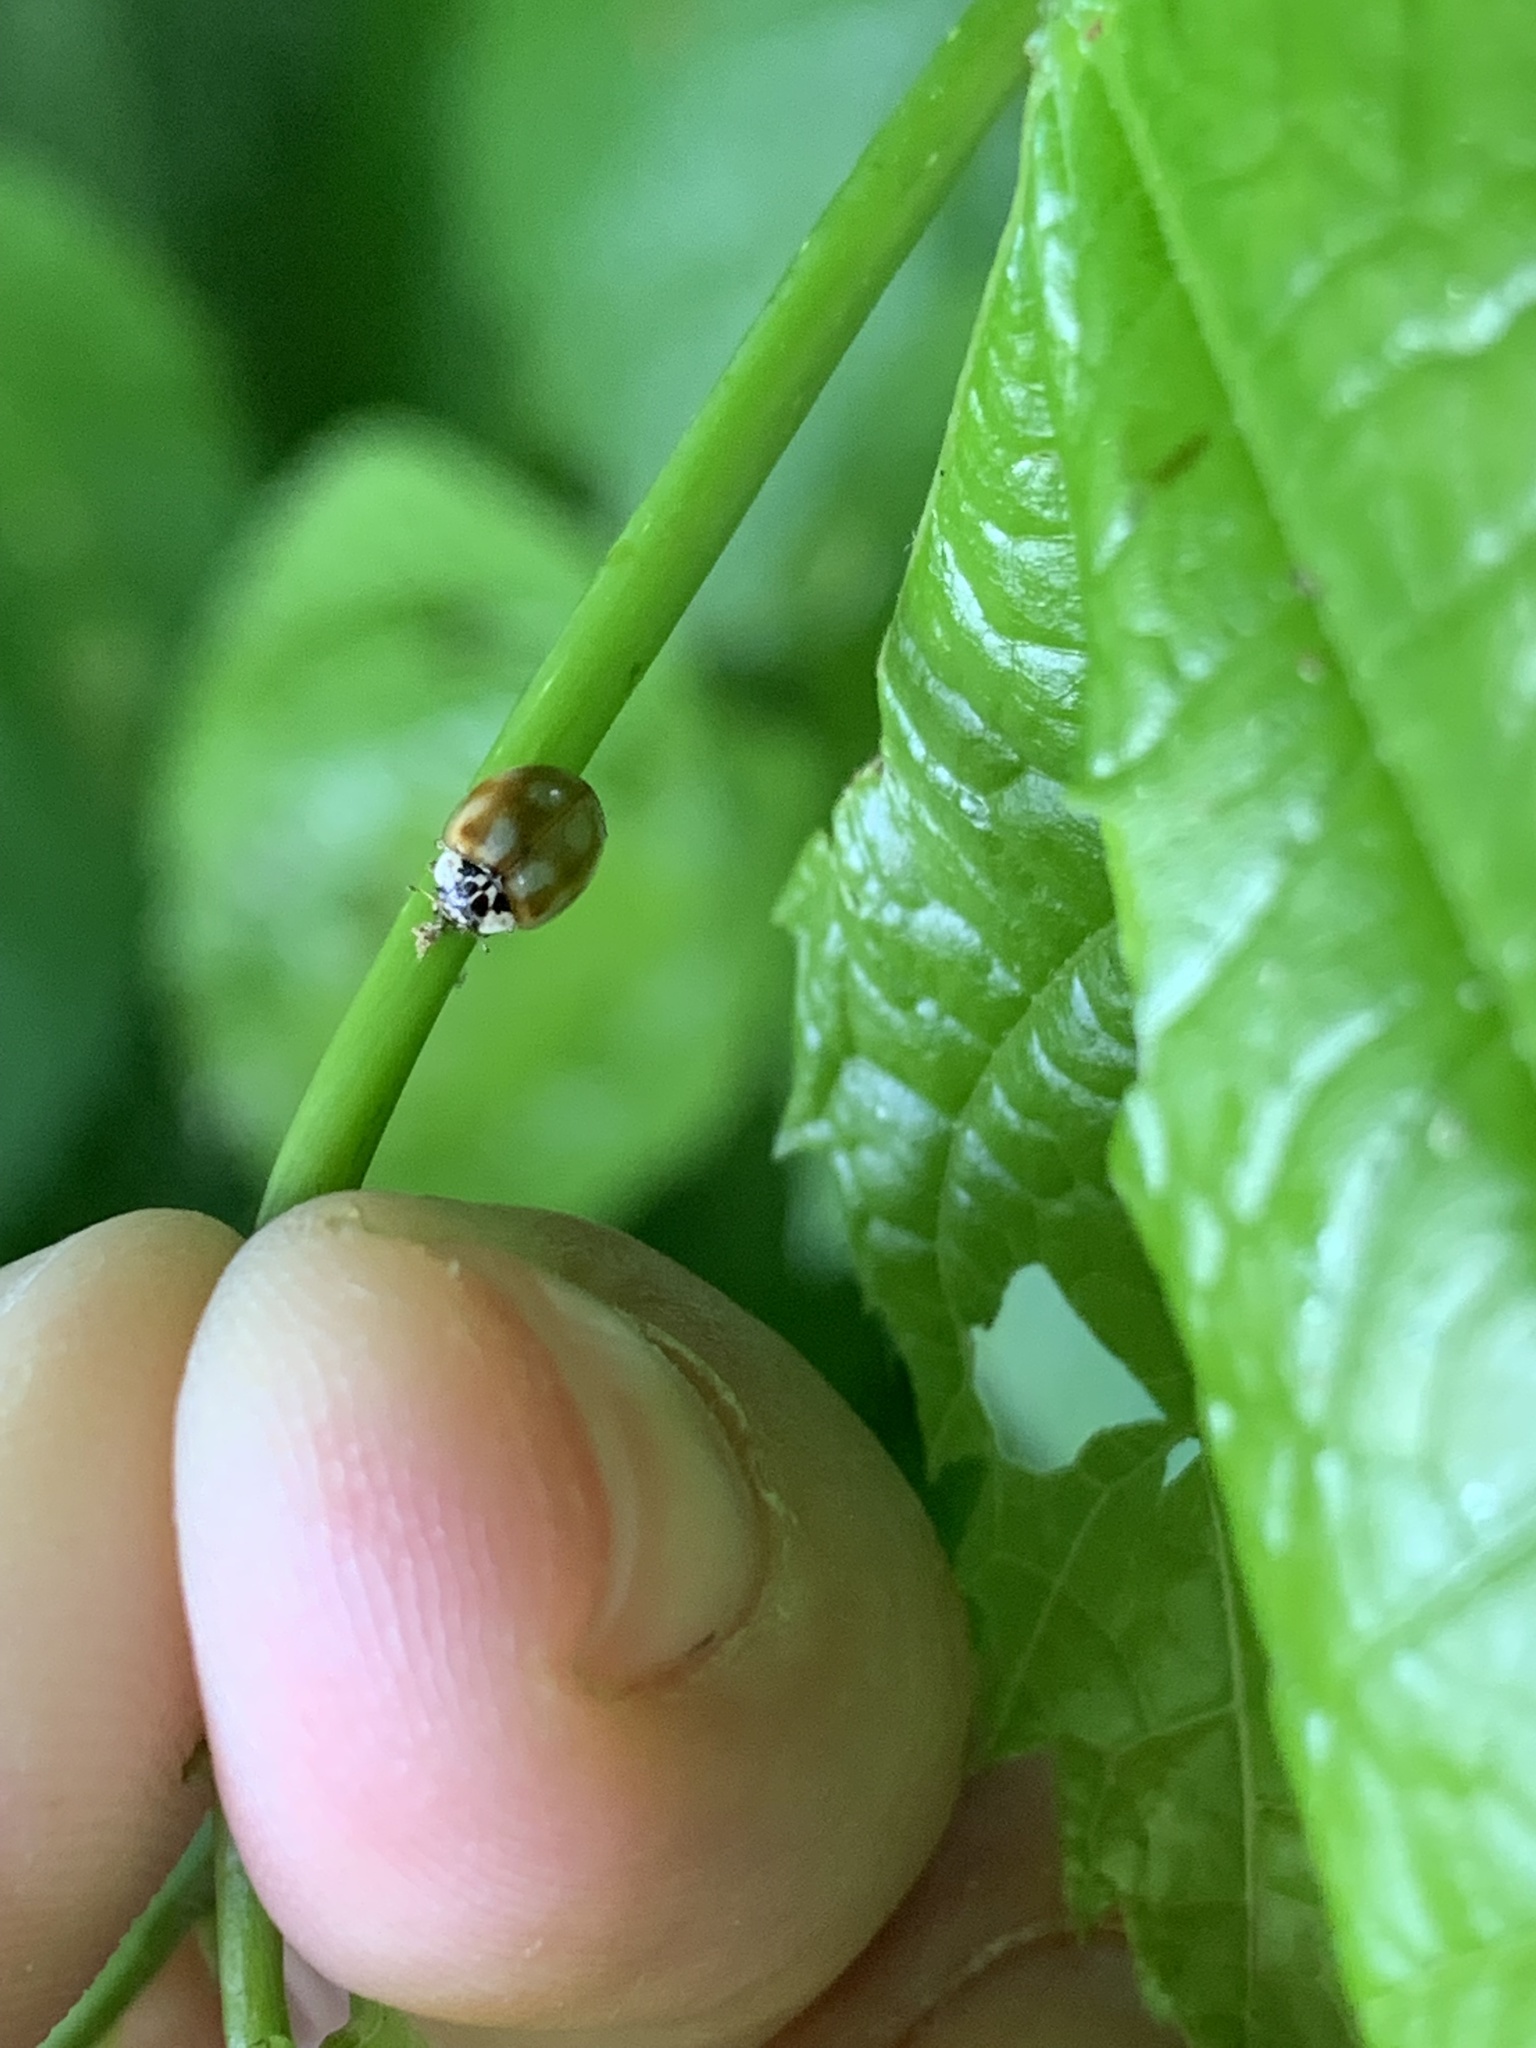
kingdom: Animalia
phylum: Arthropoda
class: Insecta
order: Coleoptera
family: Coccinellidae
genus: Adalia
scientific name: Adalia decempunctata
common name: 10-spot ladybird
